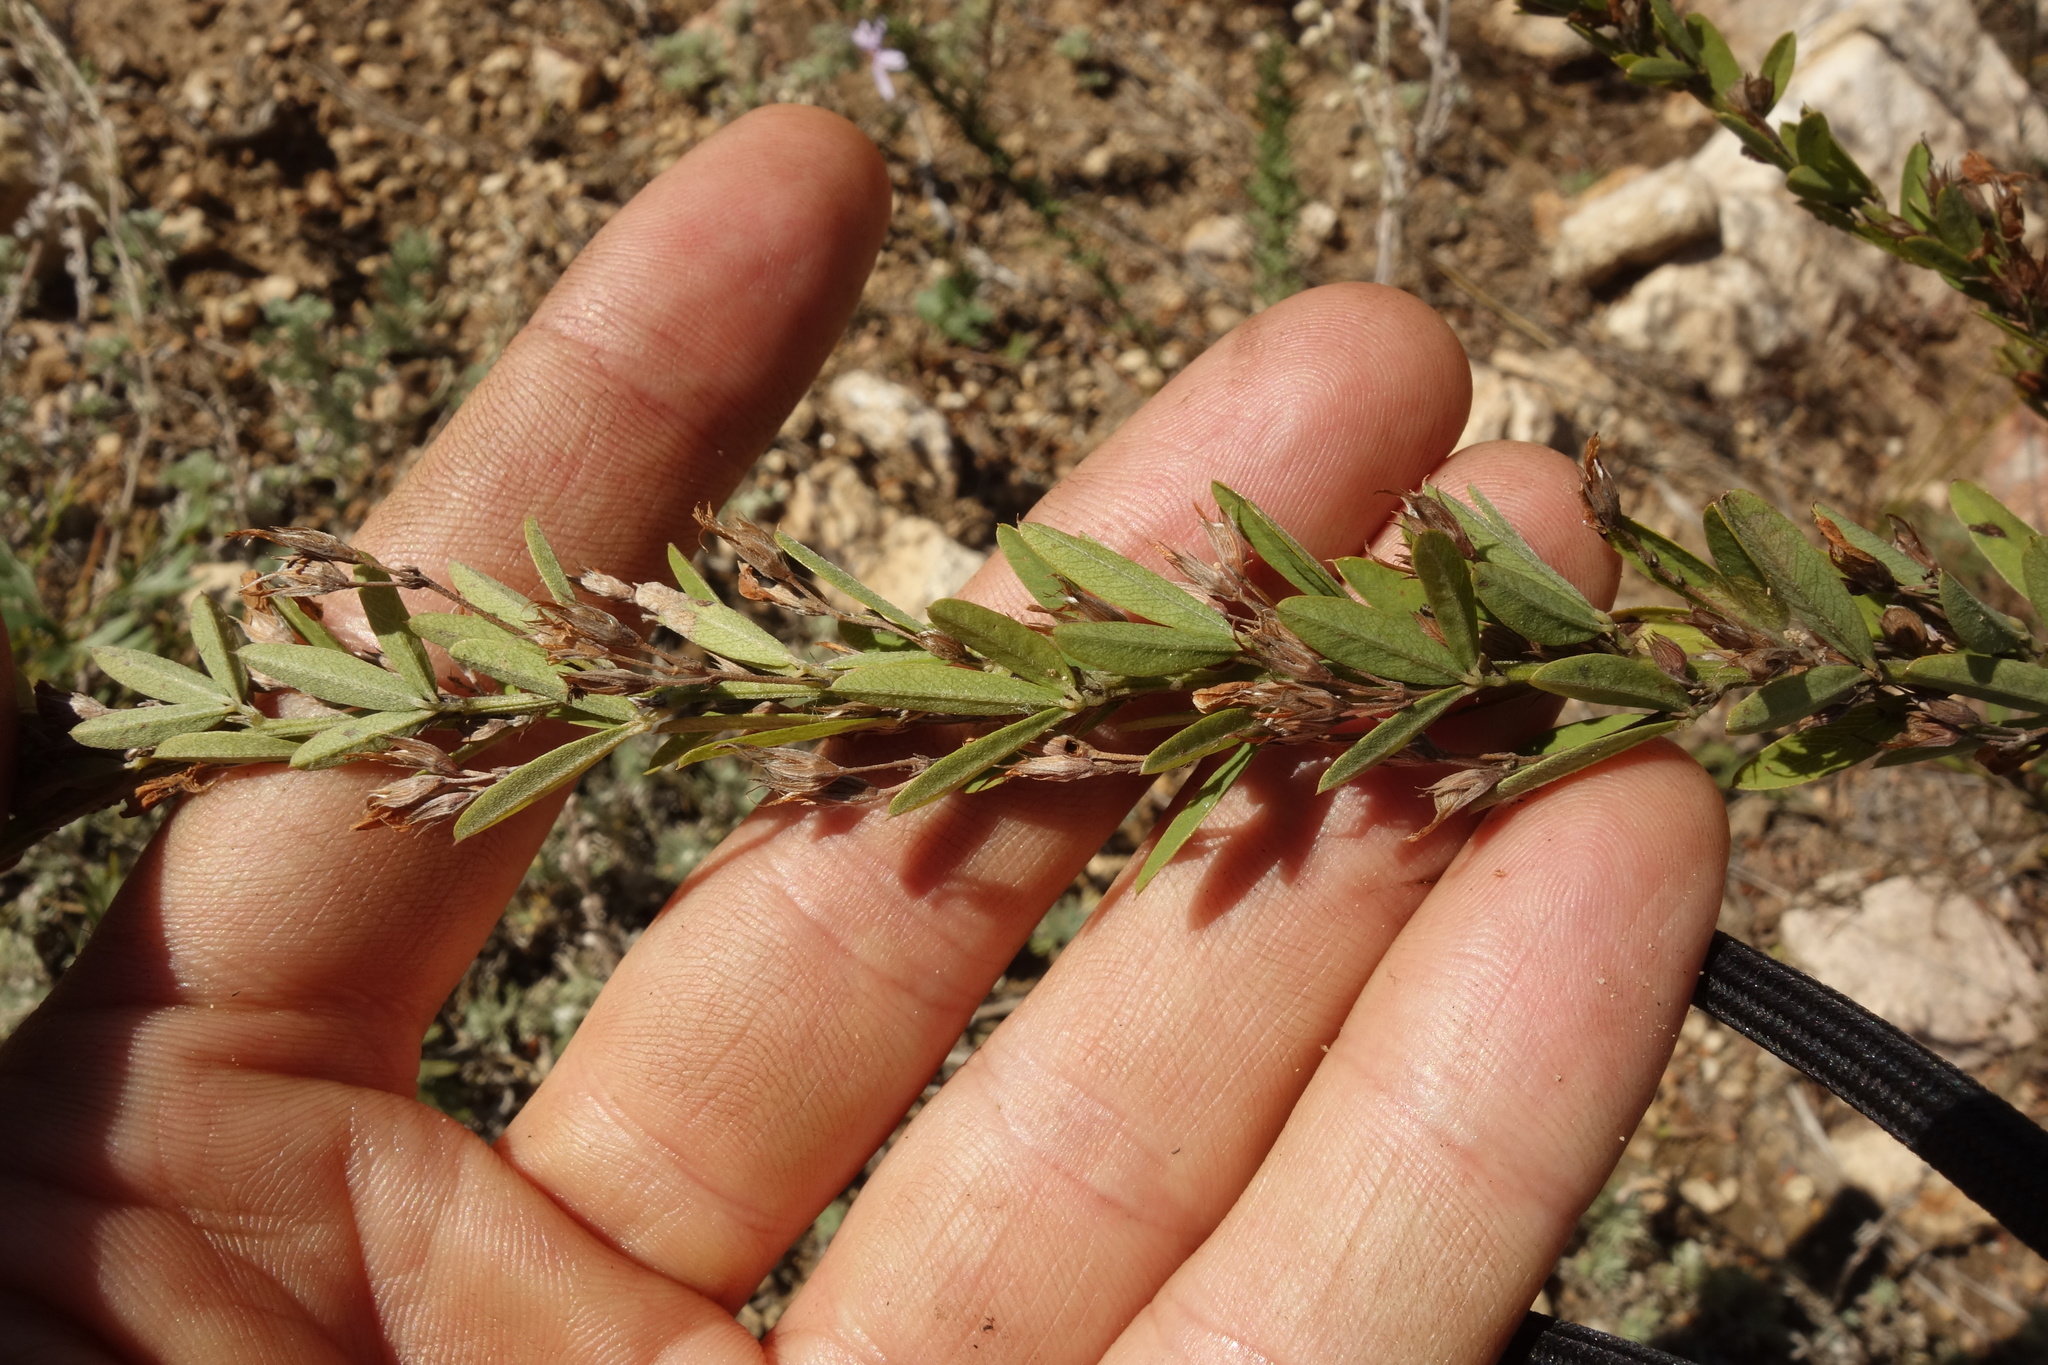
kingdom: Plantae
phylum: Tracheophyta
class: Magnoliopsida
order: Fabales
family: Fabaceae
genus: Lespedeza
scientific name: Lespedeza juncea
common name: Siberian lespedeza
